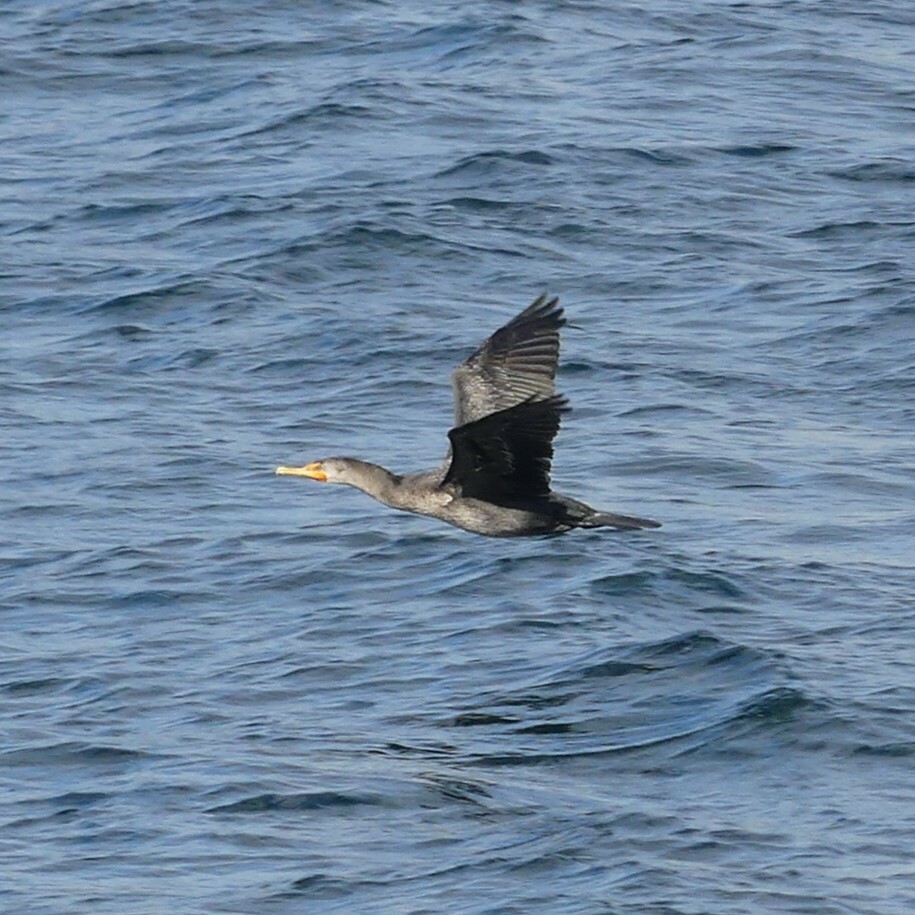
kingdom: Animalia
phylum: Chordata
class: Aves
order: Suliformes
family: Phalacrocoracidae
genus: Phalacrocorax
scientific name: Phalacrocorax auritus
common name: Double-crested cormorant
